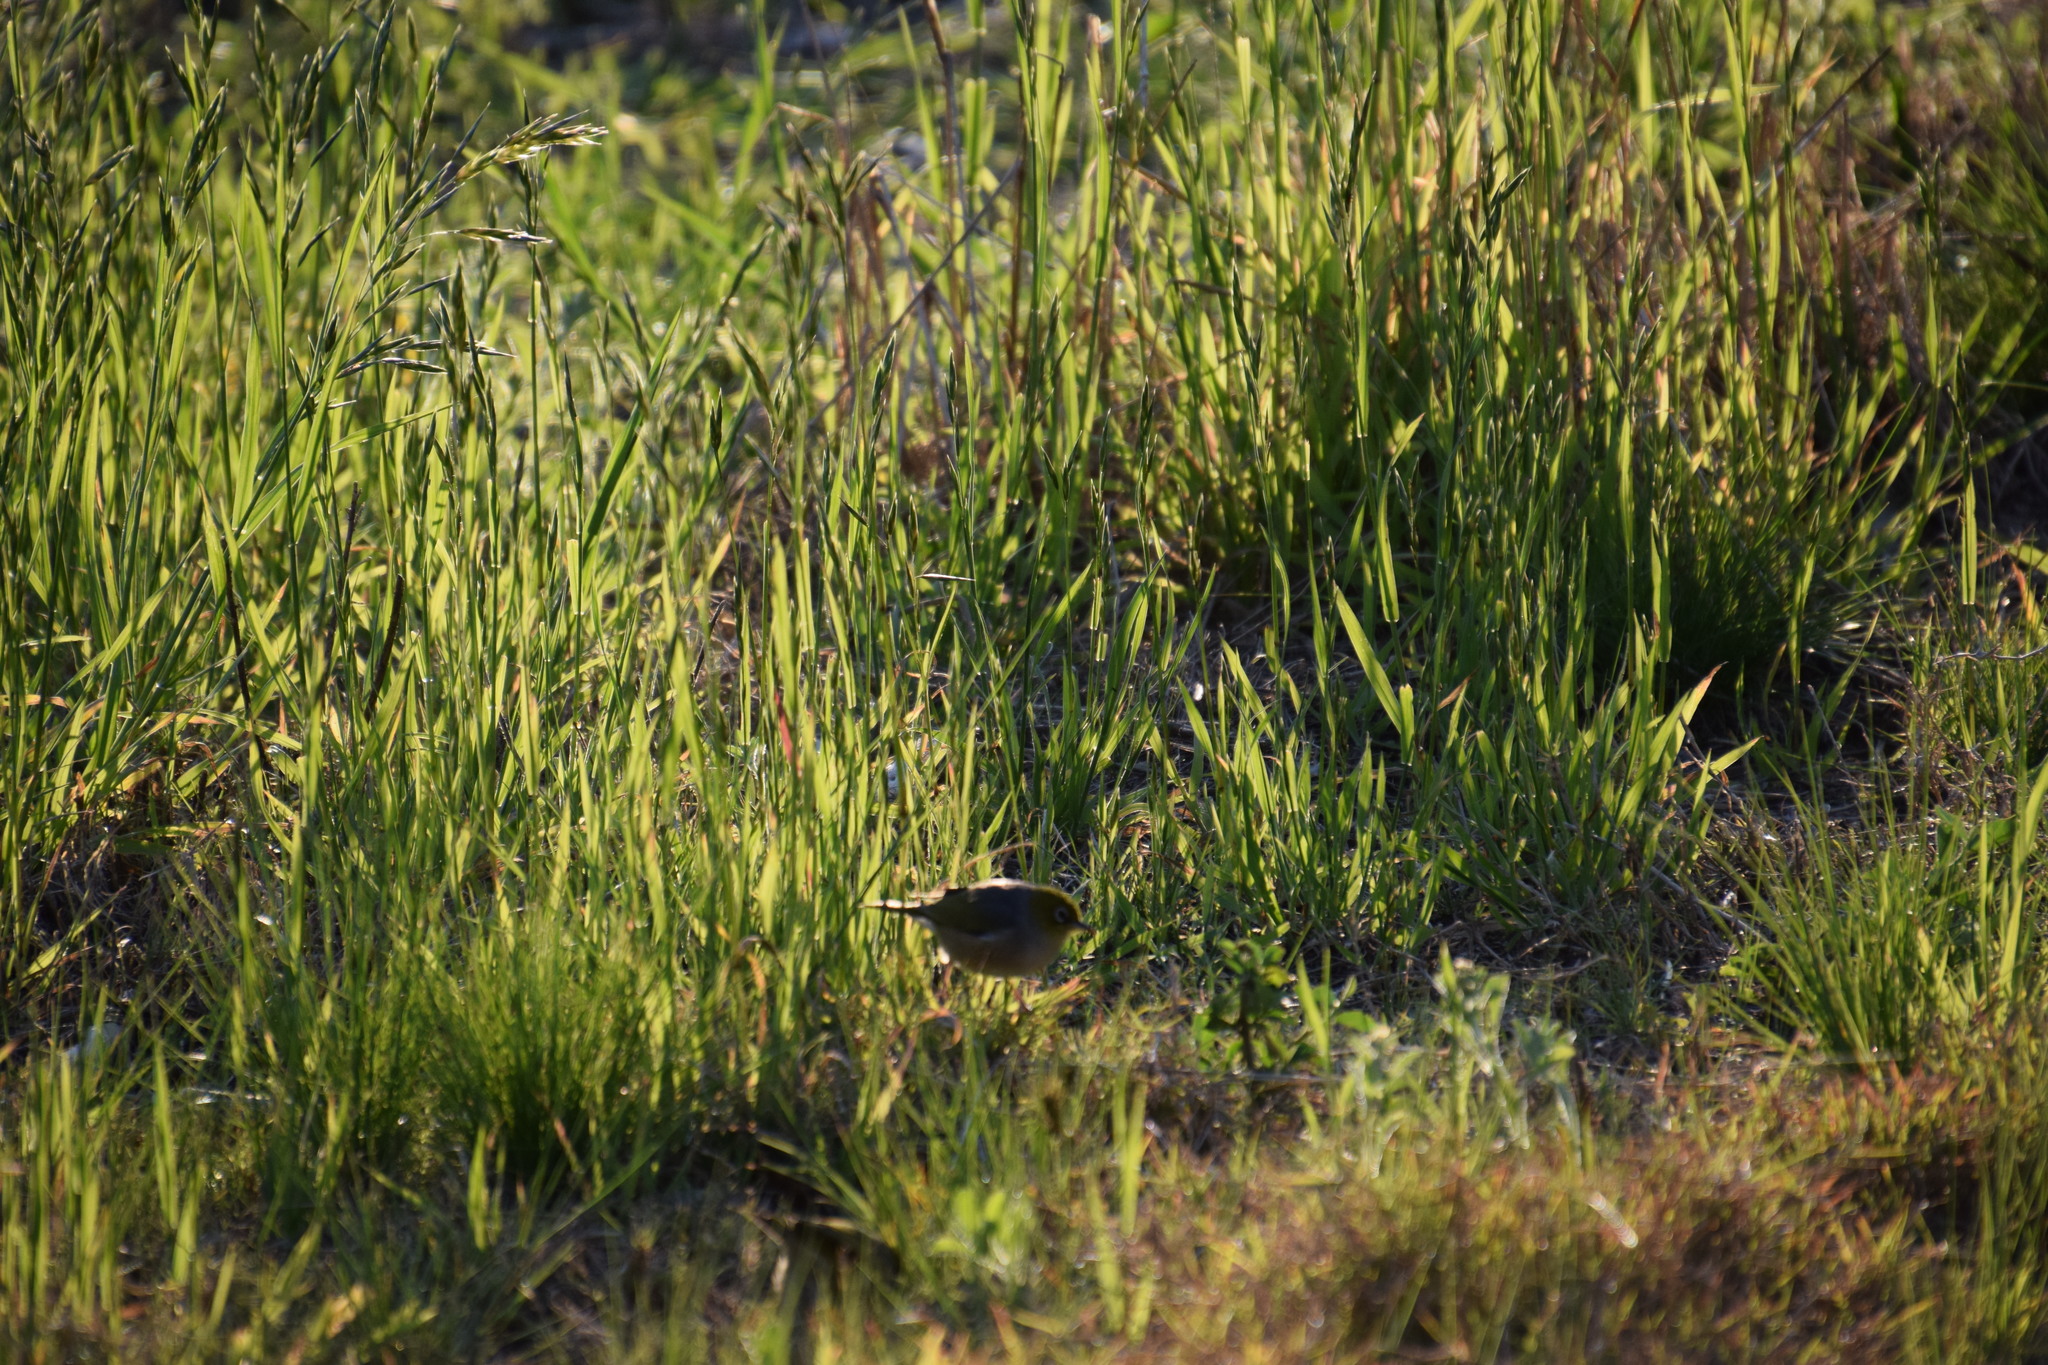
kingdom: Animalia
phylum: Chordata
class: Aves
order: Passeriformes
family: Zosteropidae
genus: Zosterops
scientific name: Zosterops lateralis
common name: Silvereye
